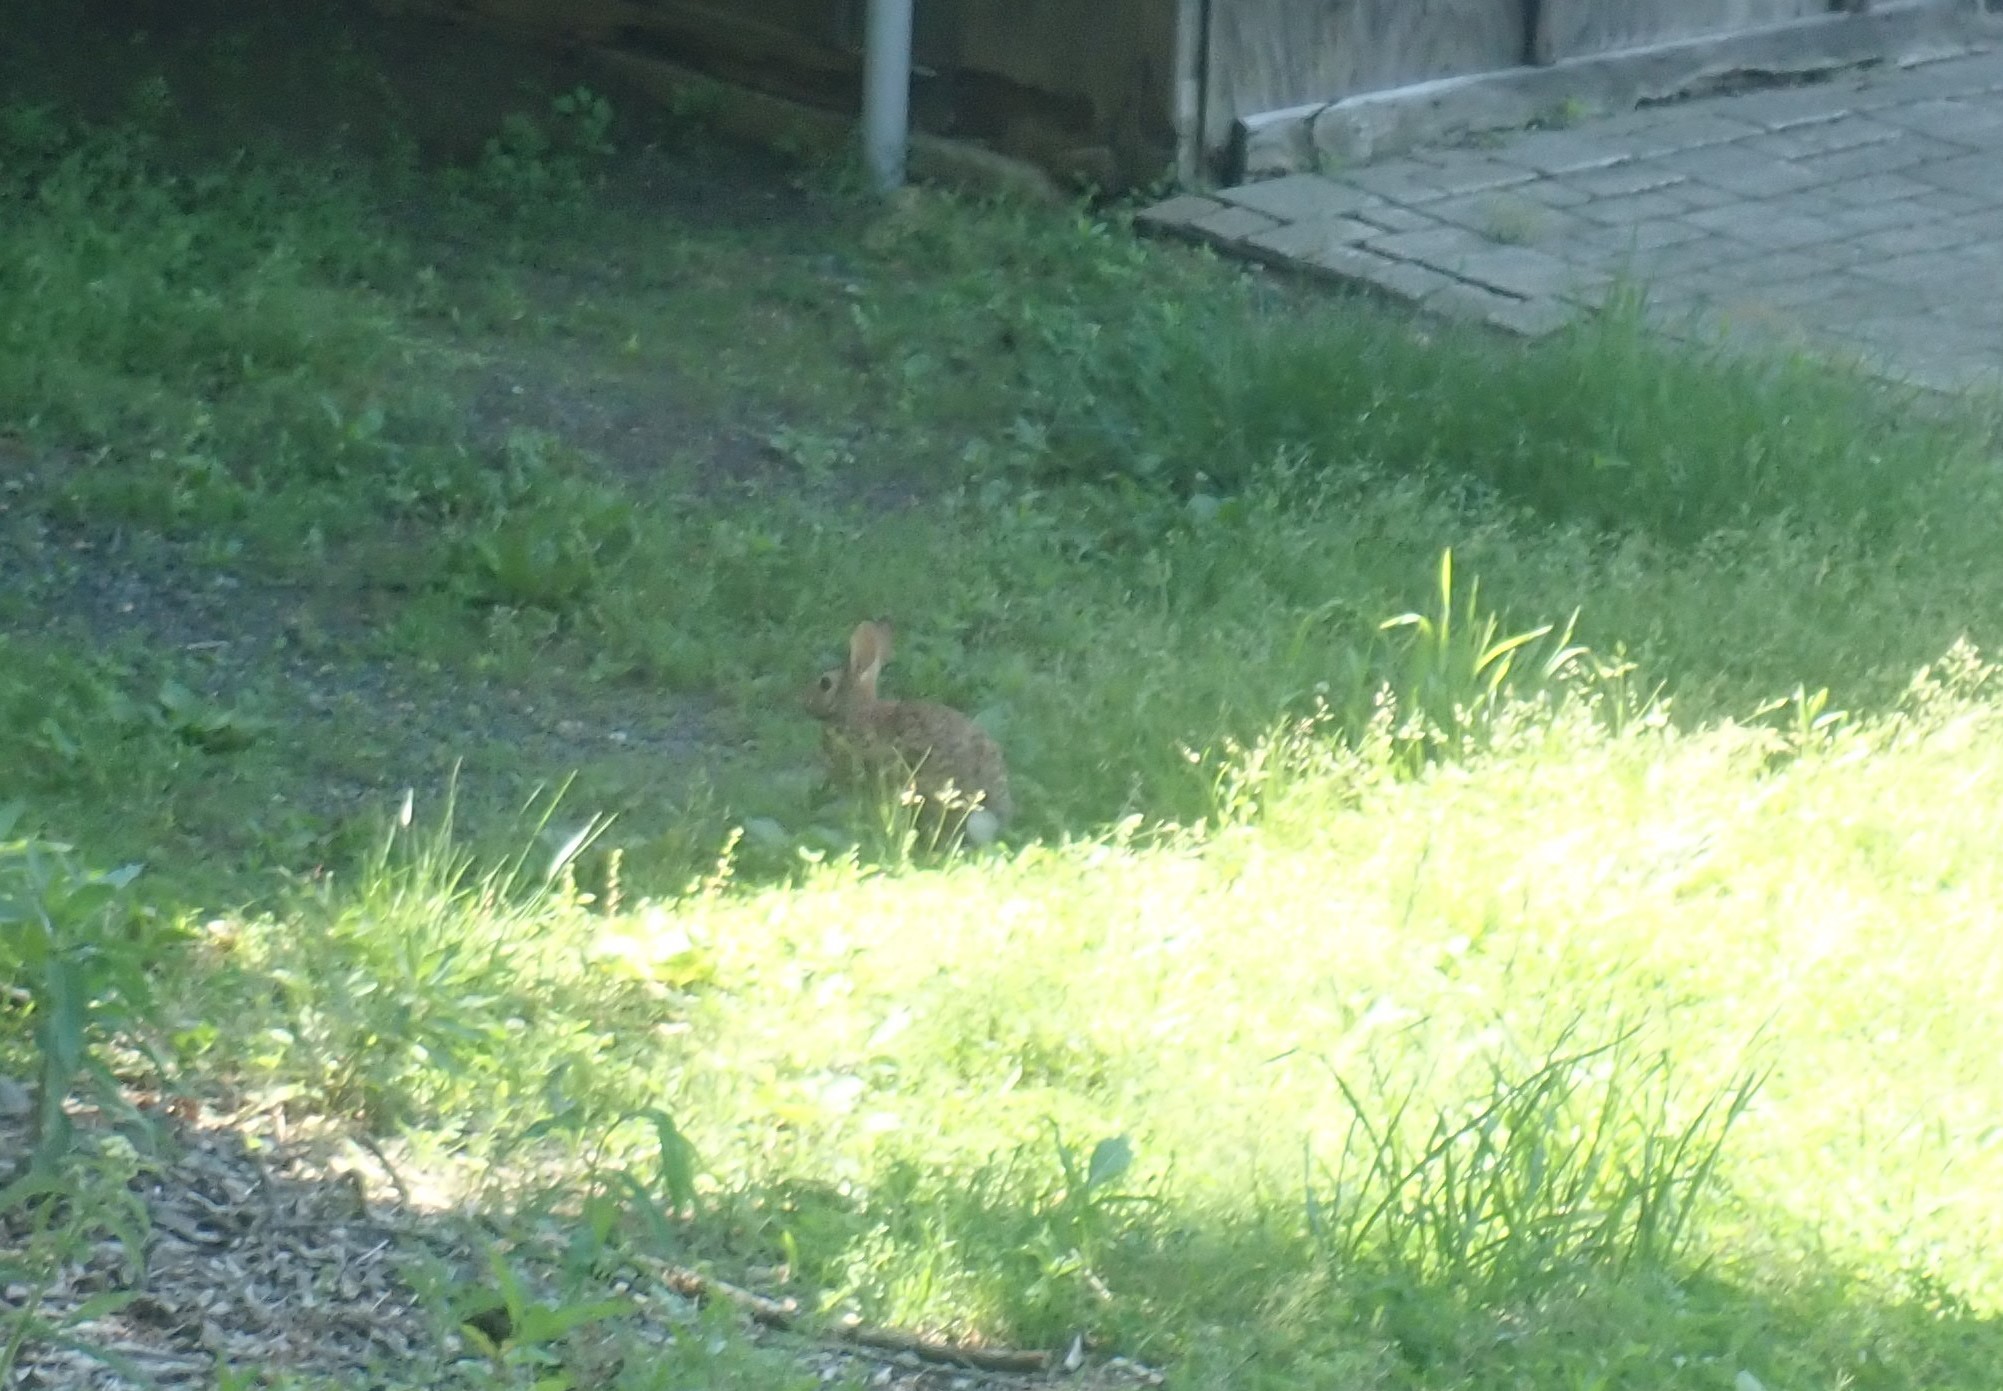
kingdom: Animalia
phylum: Chordata
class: Mammalia
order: Lagomorpha
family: Leporidae
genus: Sylvilagus
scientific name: Sylvilagus floridanus
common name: Eastern cottontail
